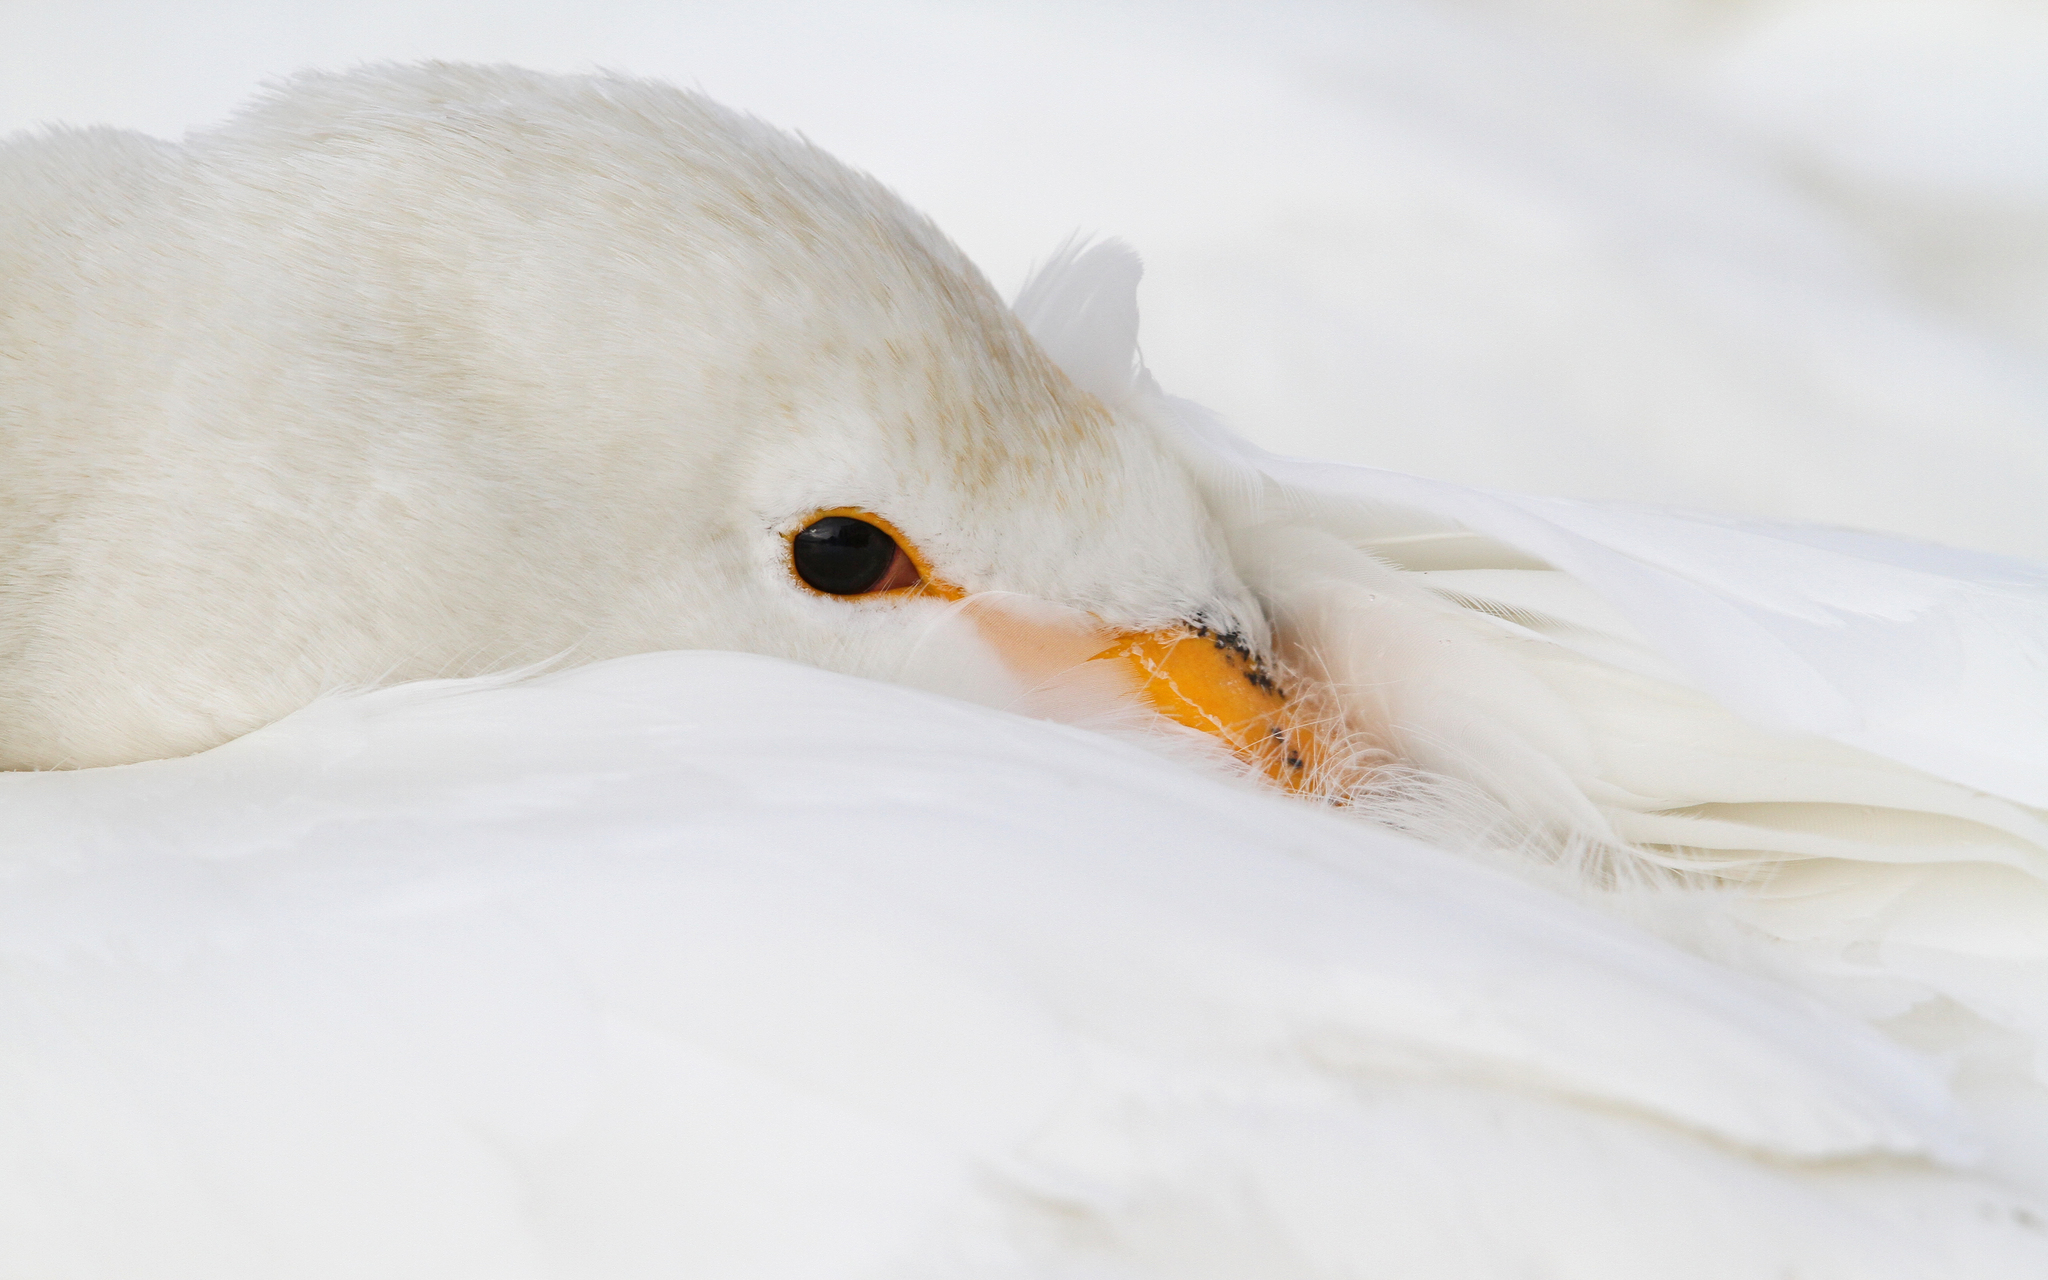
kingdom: Animalia
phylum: Chordata
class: Aves
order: Anseriformes
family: Anatidae
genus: Cygnus
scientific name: Cygnus cygnus
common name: Whooper swan
